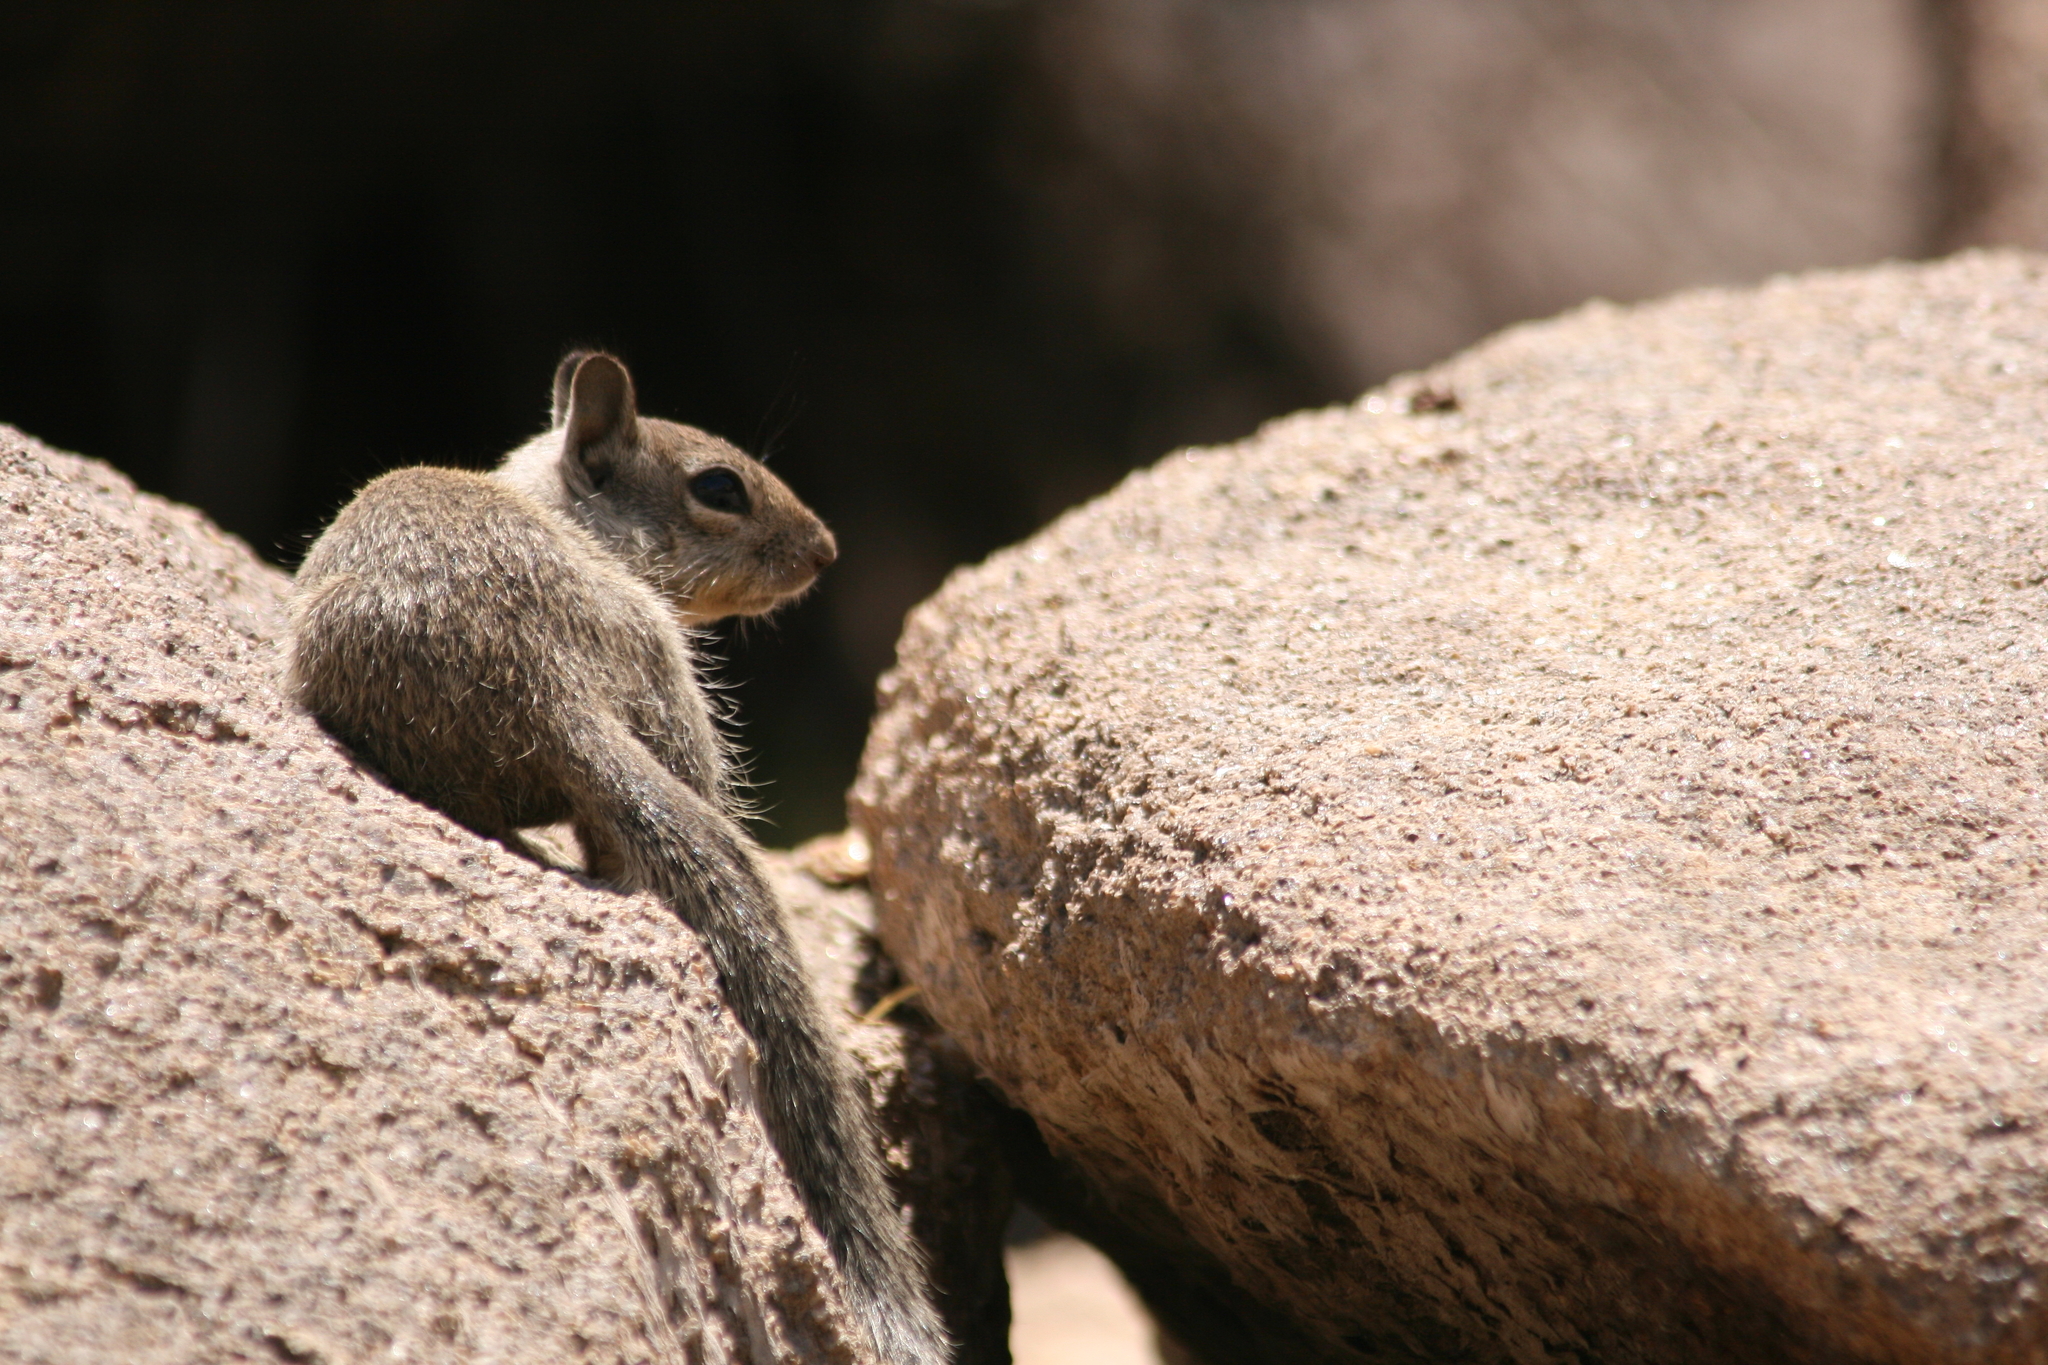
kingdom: Animalia
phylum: Chordata
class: Mammalia
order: Rodentia
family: Sciuridae
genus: Otospermophilus
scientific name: Otospermophilus beecheyi
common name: California ground squirrel
